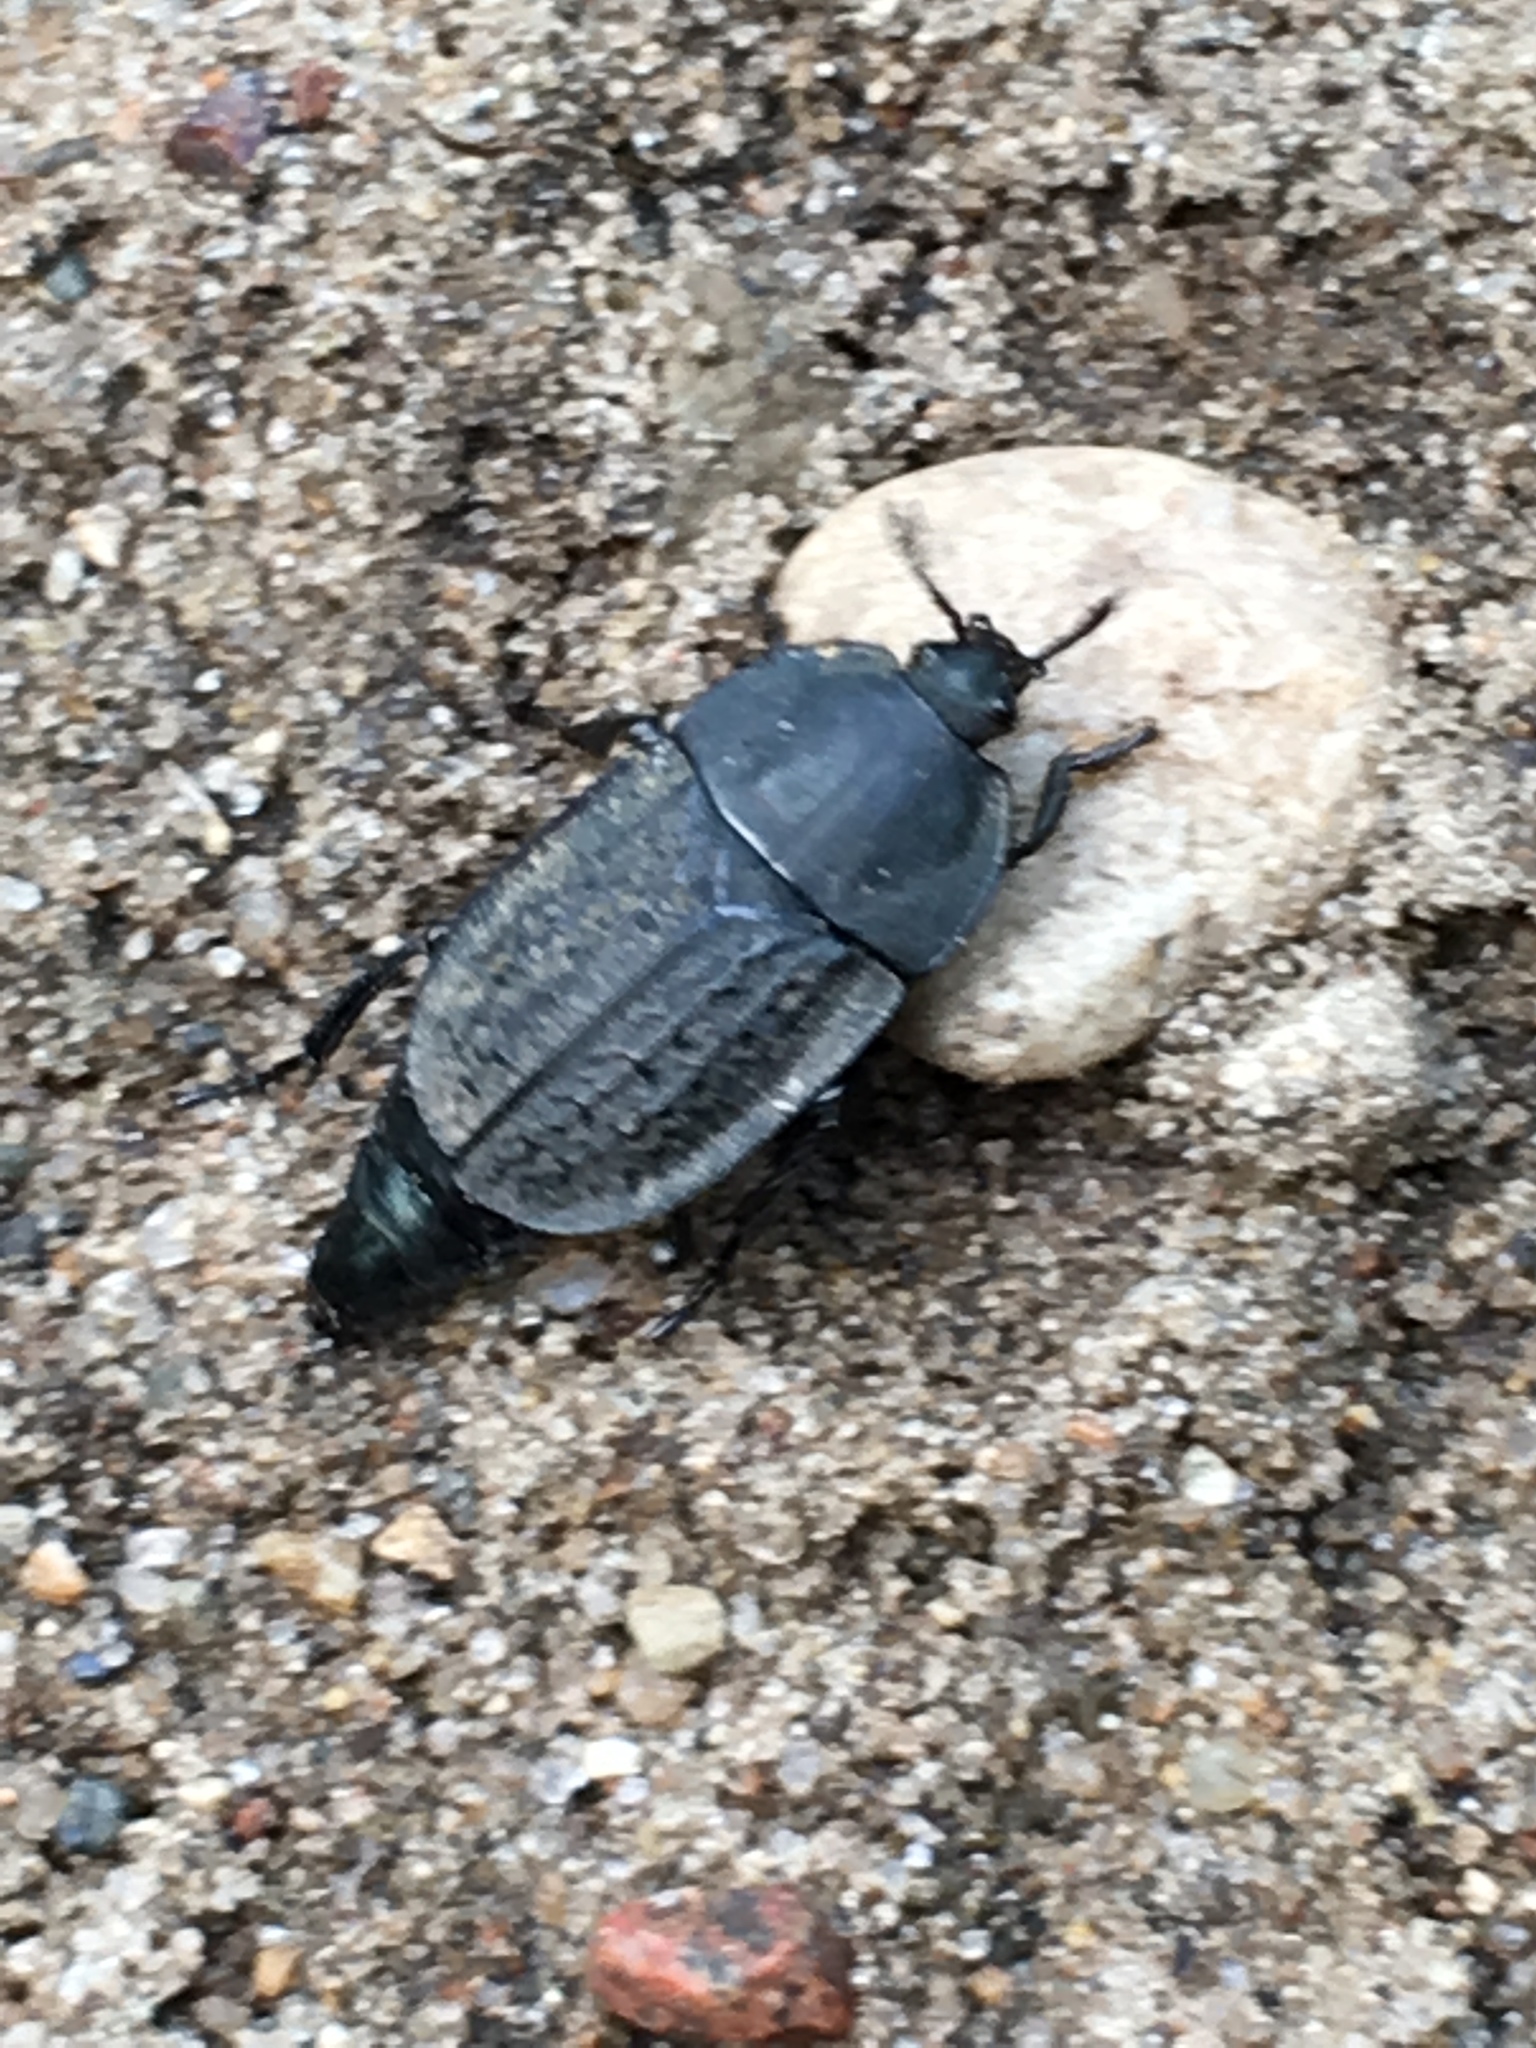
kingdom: Animalia
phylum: Arthropoda
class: Insecta
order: Coleoptera
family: Staphylinidae
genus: Heterosilpha
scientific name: Heterosilpha ramosa
